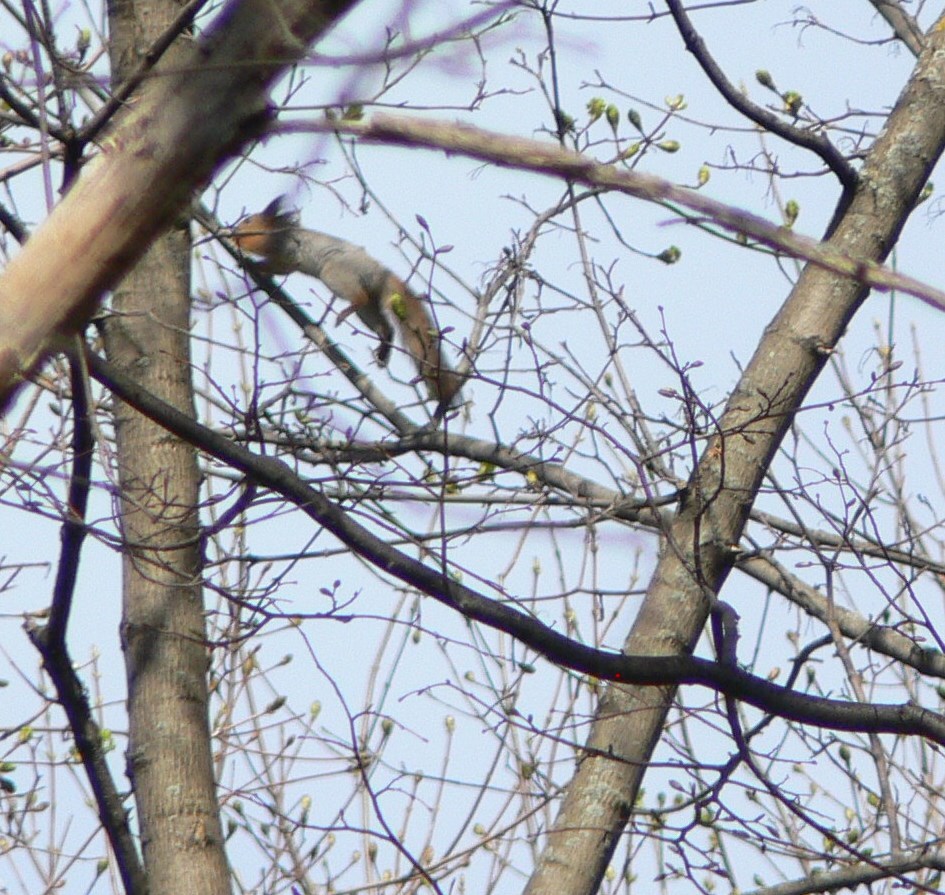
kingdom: Animalia
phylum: Chordata
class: Mammalia
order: Rodentia
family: Sciuridae
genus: Sciurus
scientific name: Sciurus vulgaris
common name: Eurasian red squirrel
